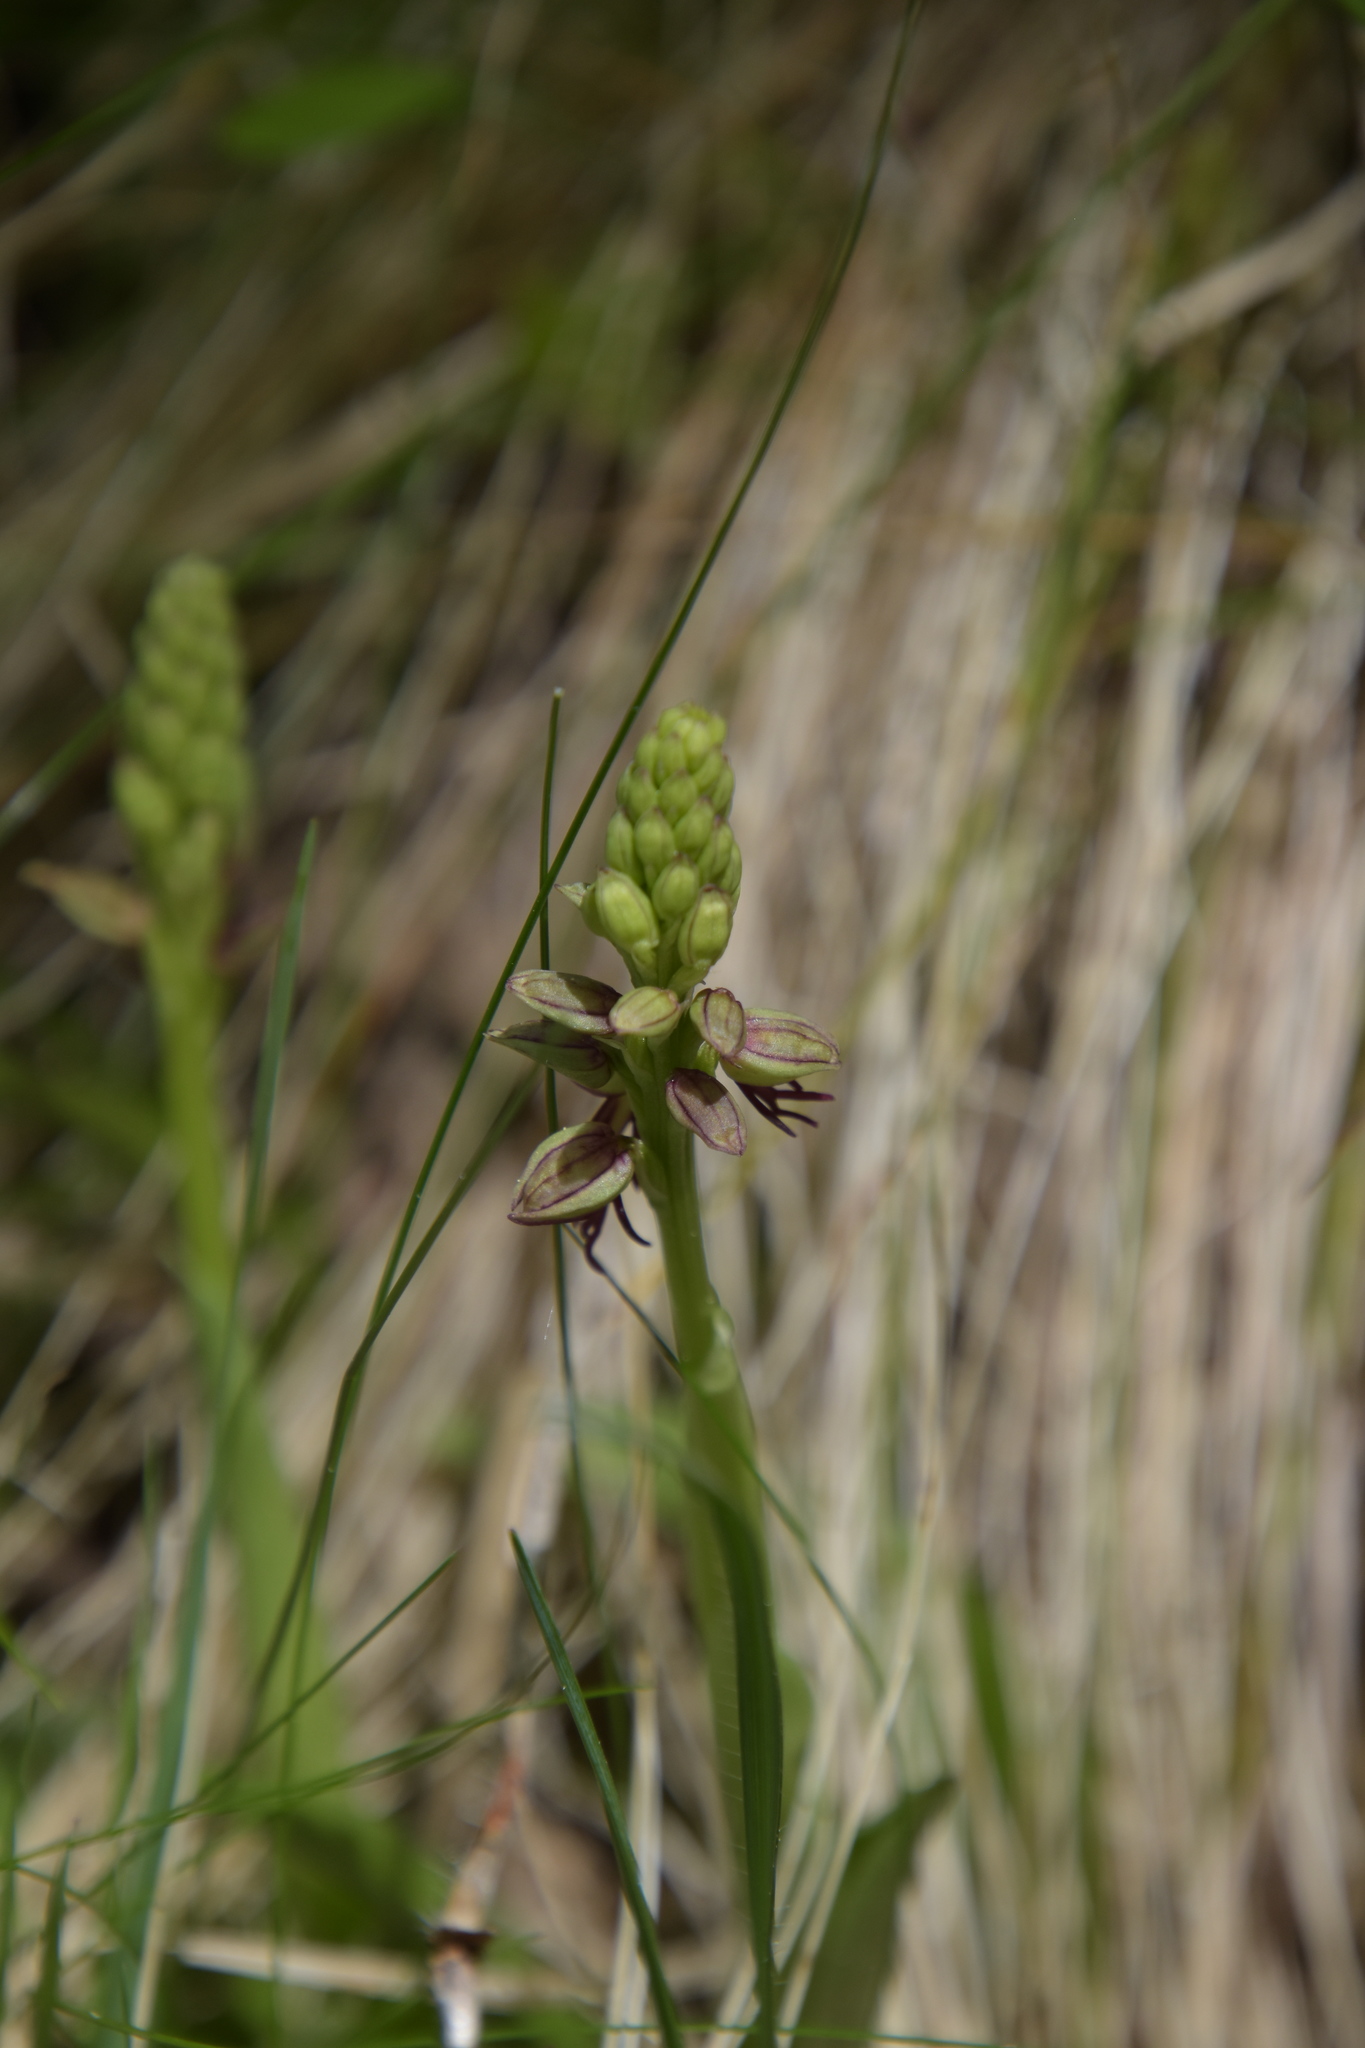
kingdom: Plantae
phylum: Tracheophyta
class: Liliopsida
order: Asparagales
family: Orchidaceae
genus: Orchis
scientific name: Orchis anthropophora
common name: Man orchid
